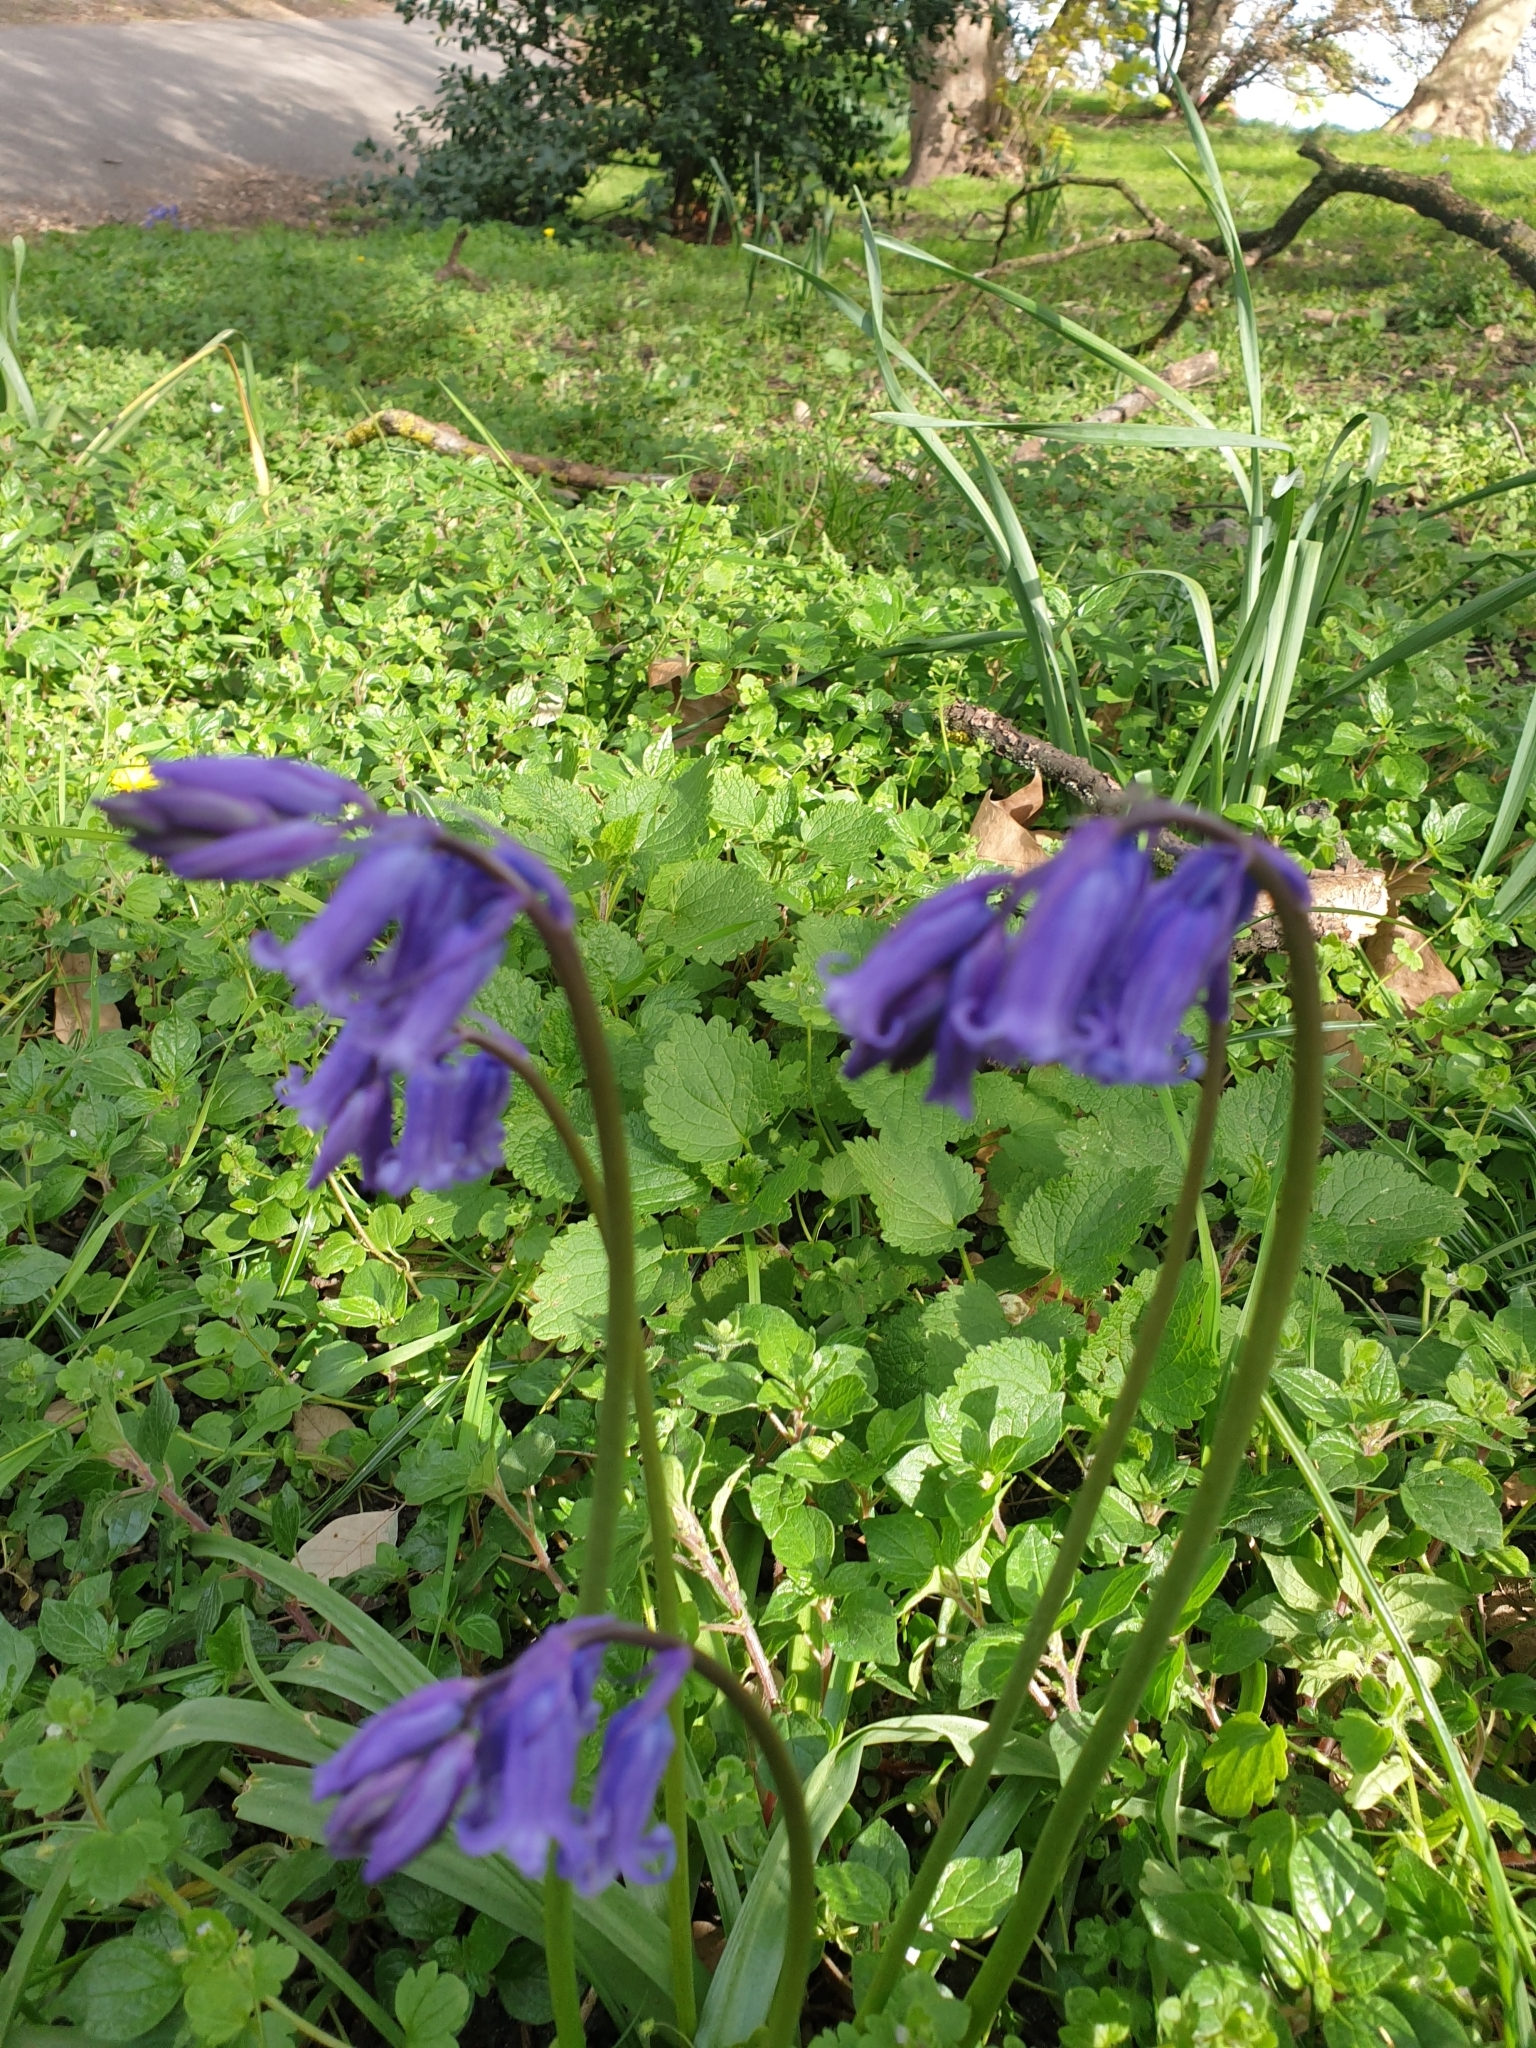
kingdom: Plantae
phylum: Tracheophyta
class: Liliopsida
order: Asparagales
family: Asparagaceae
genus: Hyacinthoides
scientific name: Hyacinthoides non-scripta
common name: Bluebell
